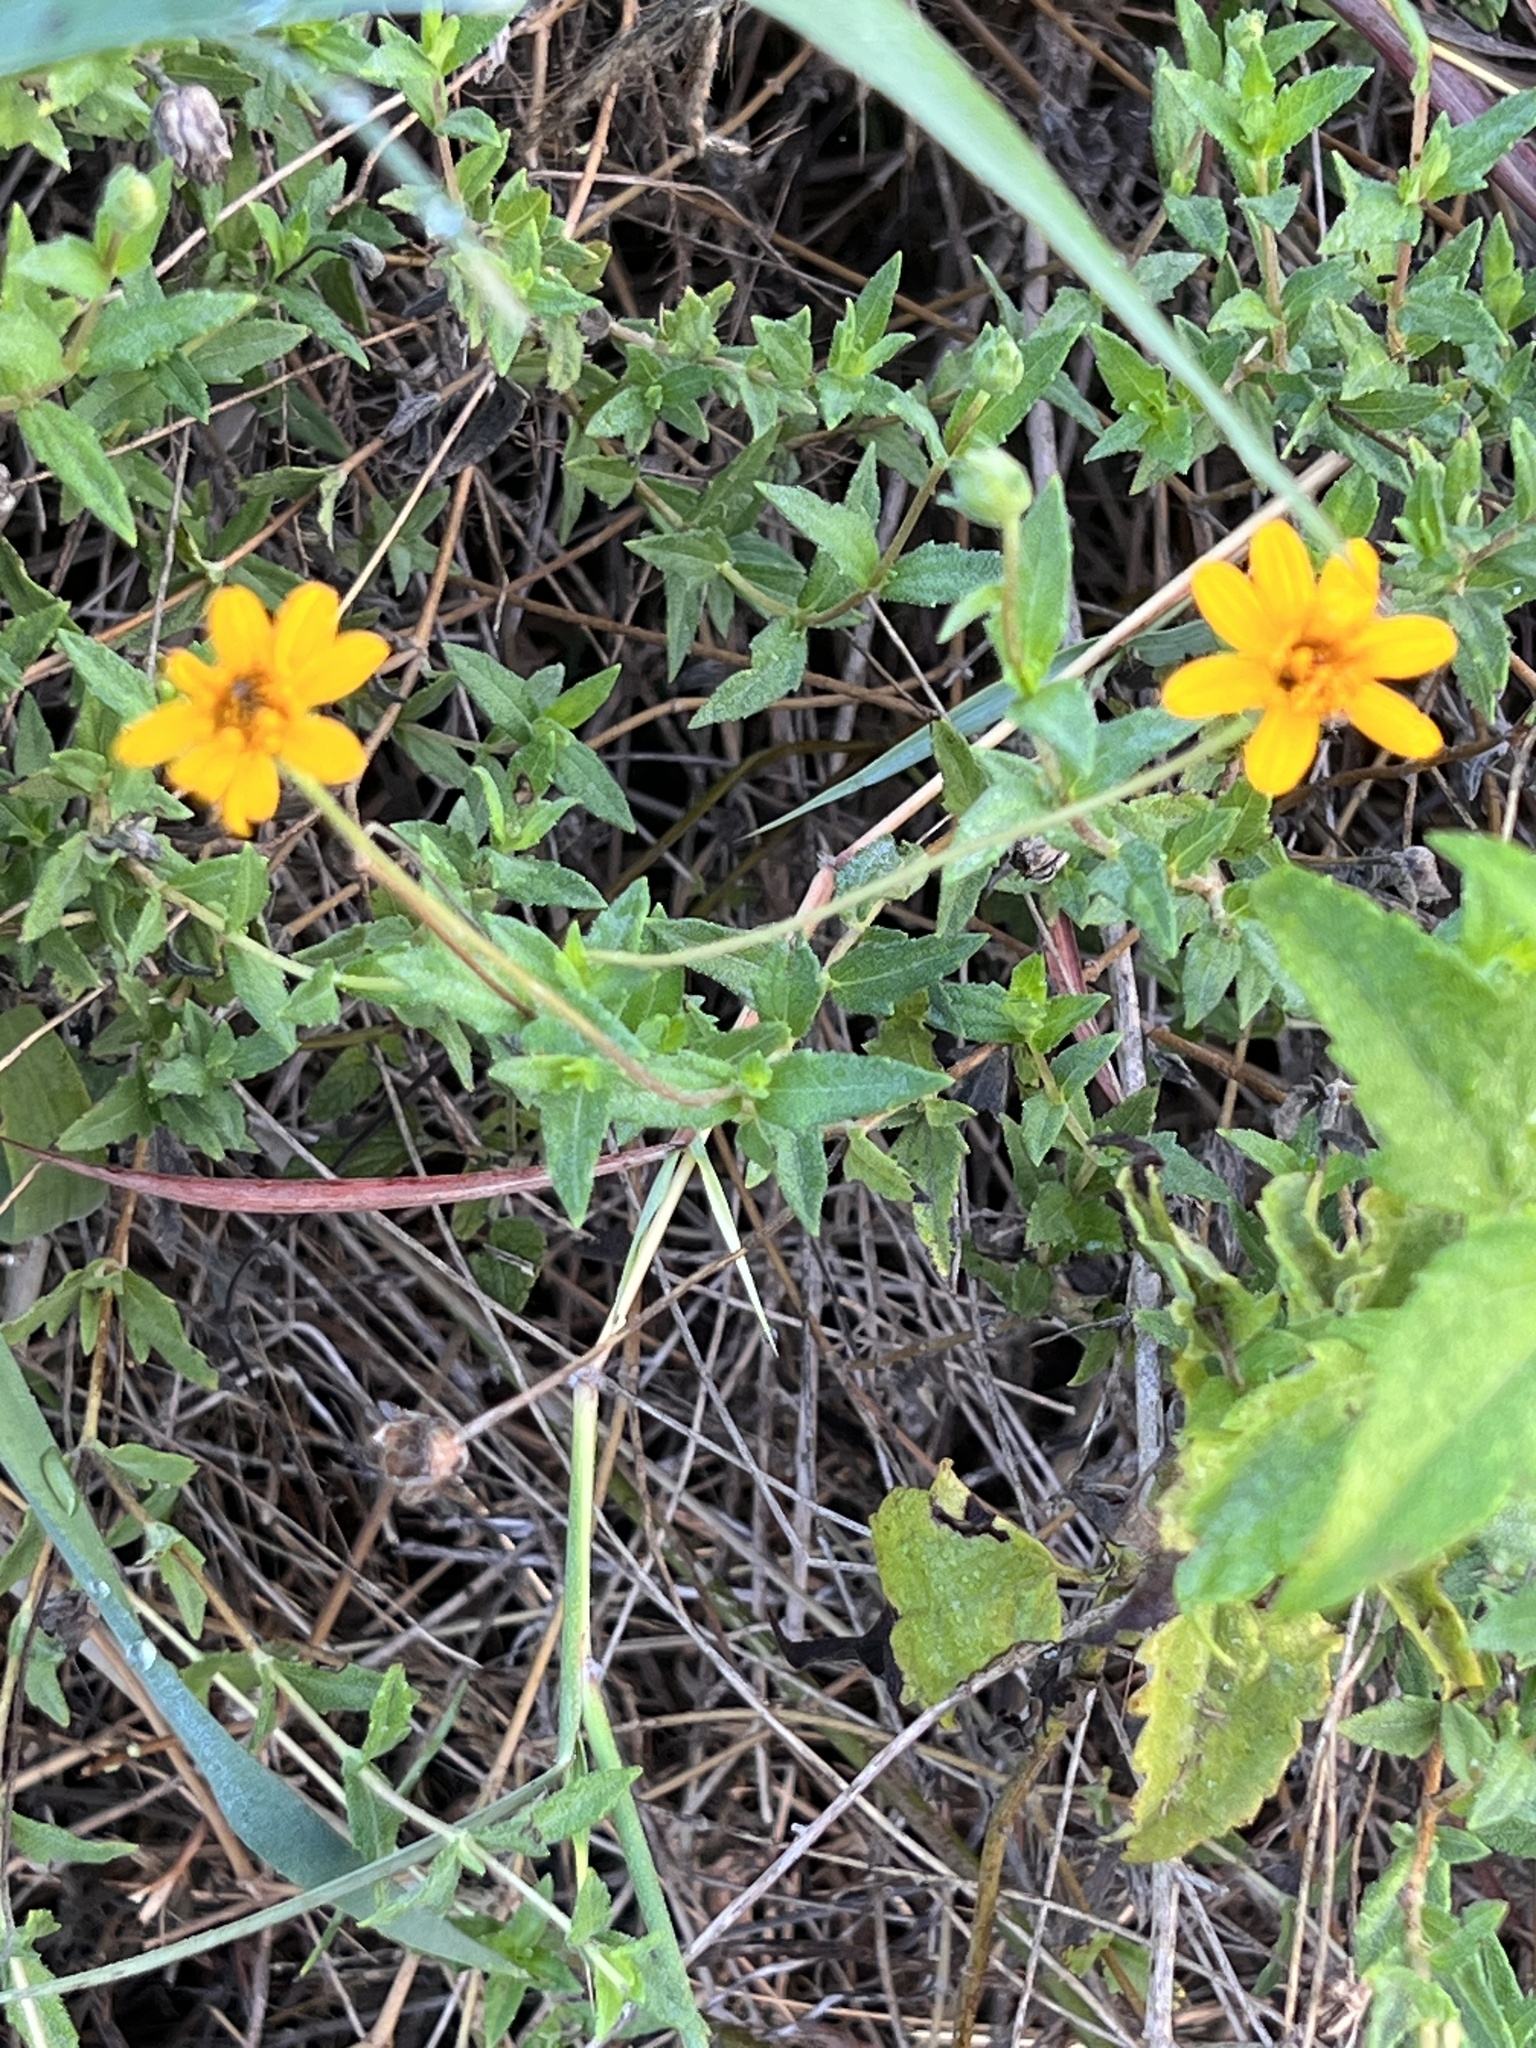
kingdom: Plantae
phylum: Tracheophyta
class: Magnoliopsida
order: Asterales
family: Asteraceae
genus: Wedelia
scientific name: Wedelia acapulcensis
